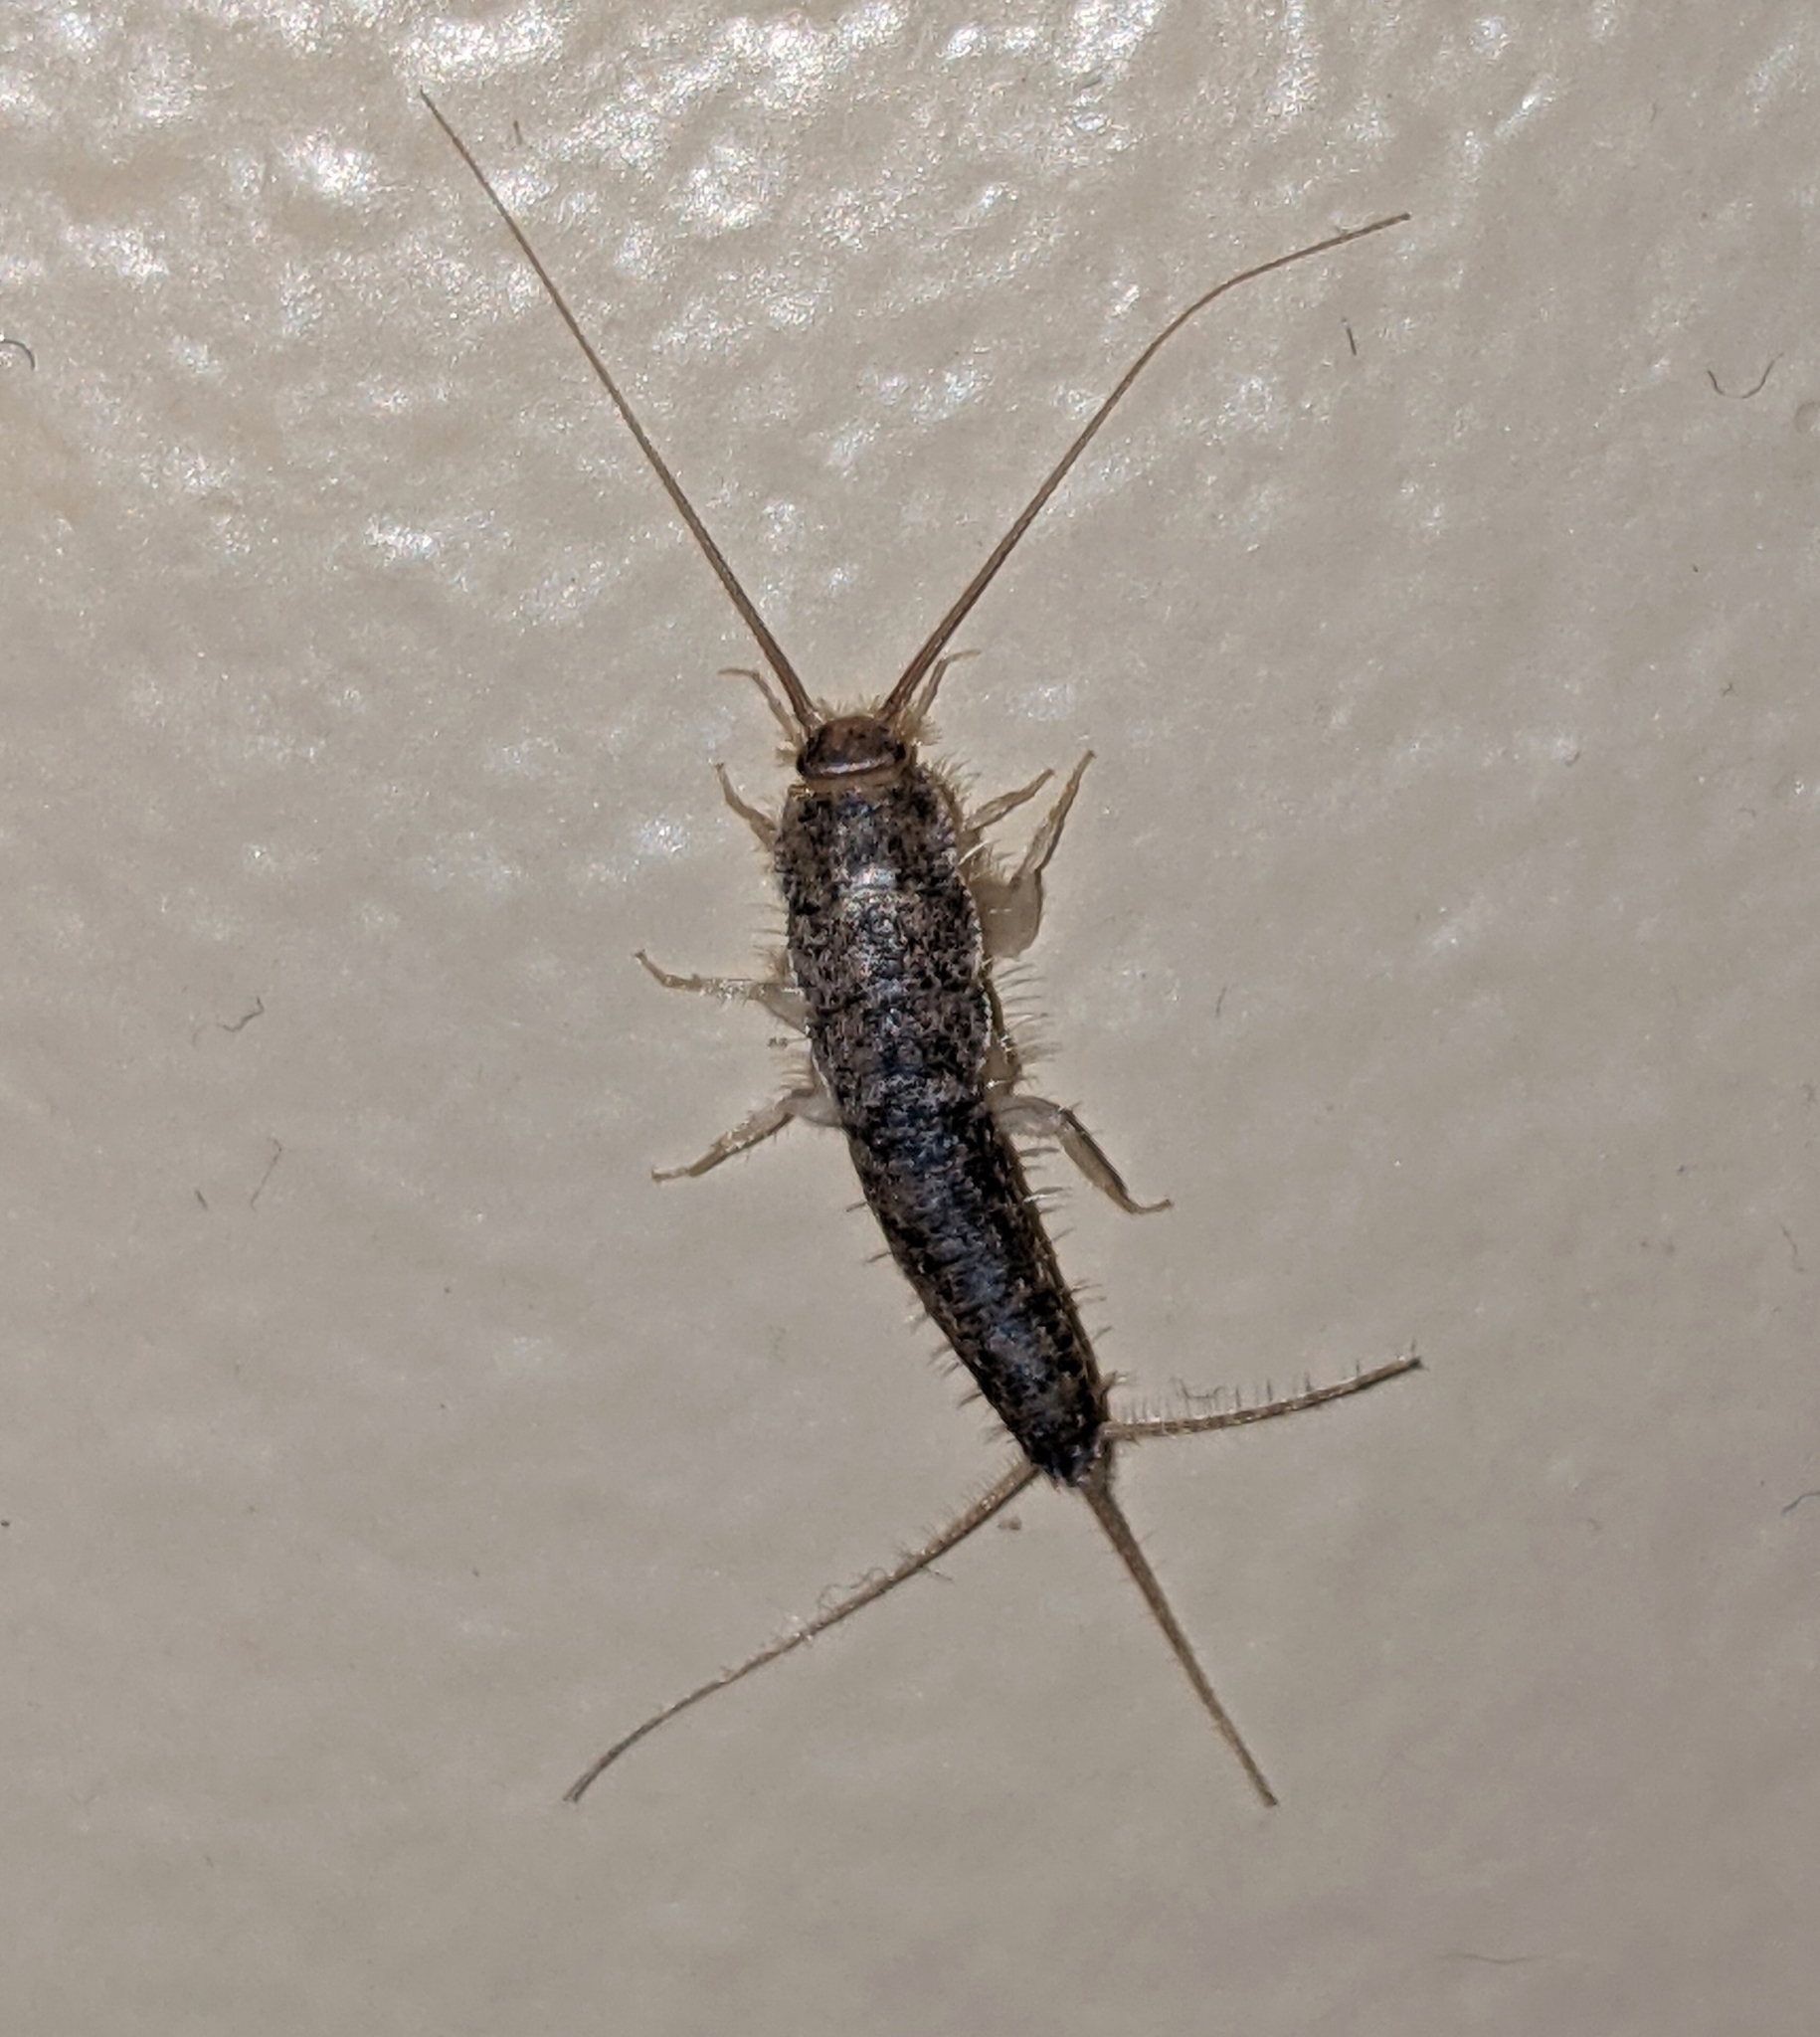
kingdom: Animalia
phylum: Arthropoda
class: Insecta
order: Zygentoma
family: Lepismatidae
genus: Ctenolepisma
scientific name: Ctenolepisma longicaudatum
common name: Silverfish
